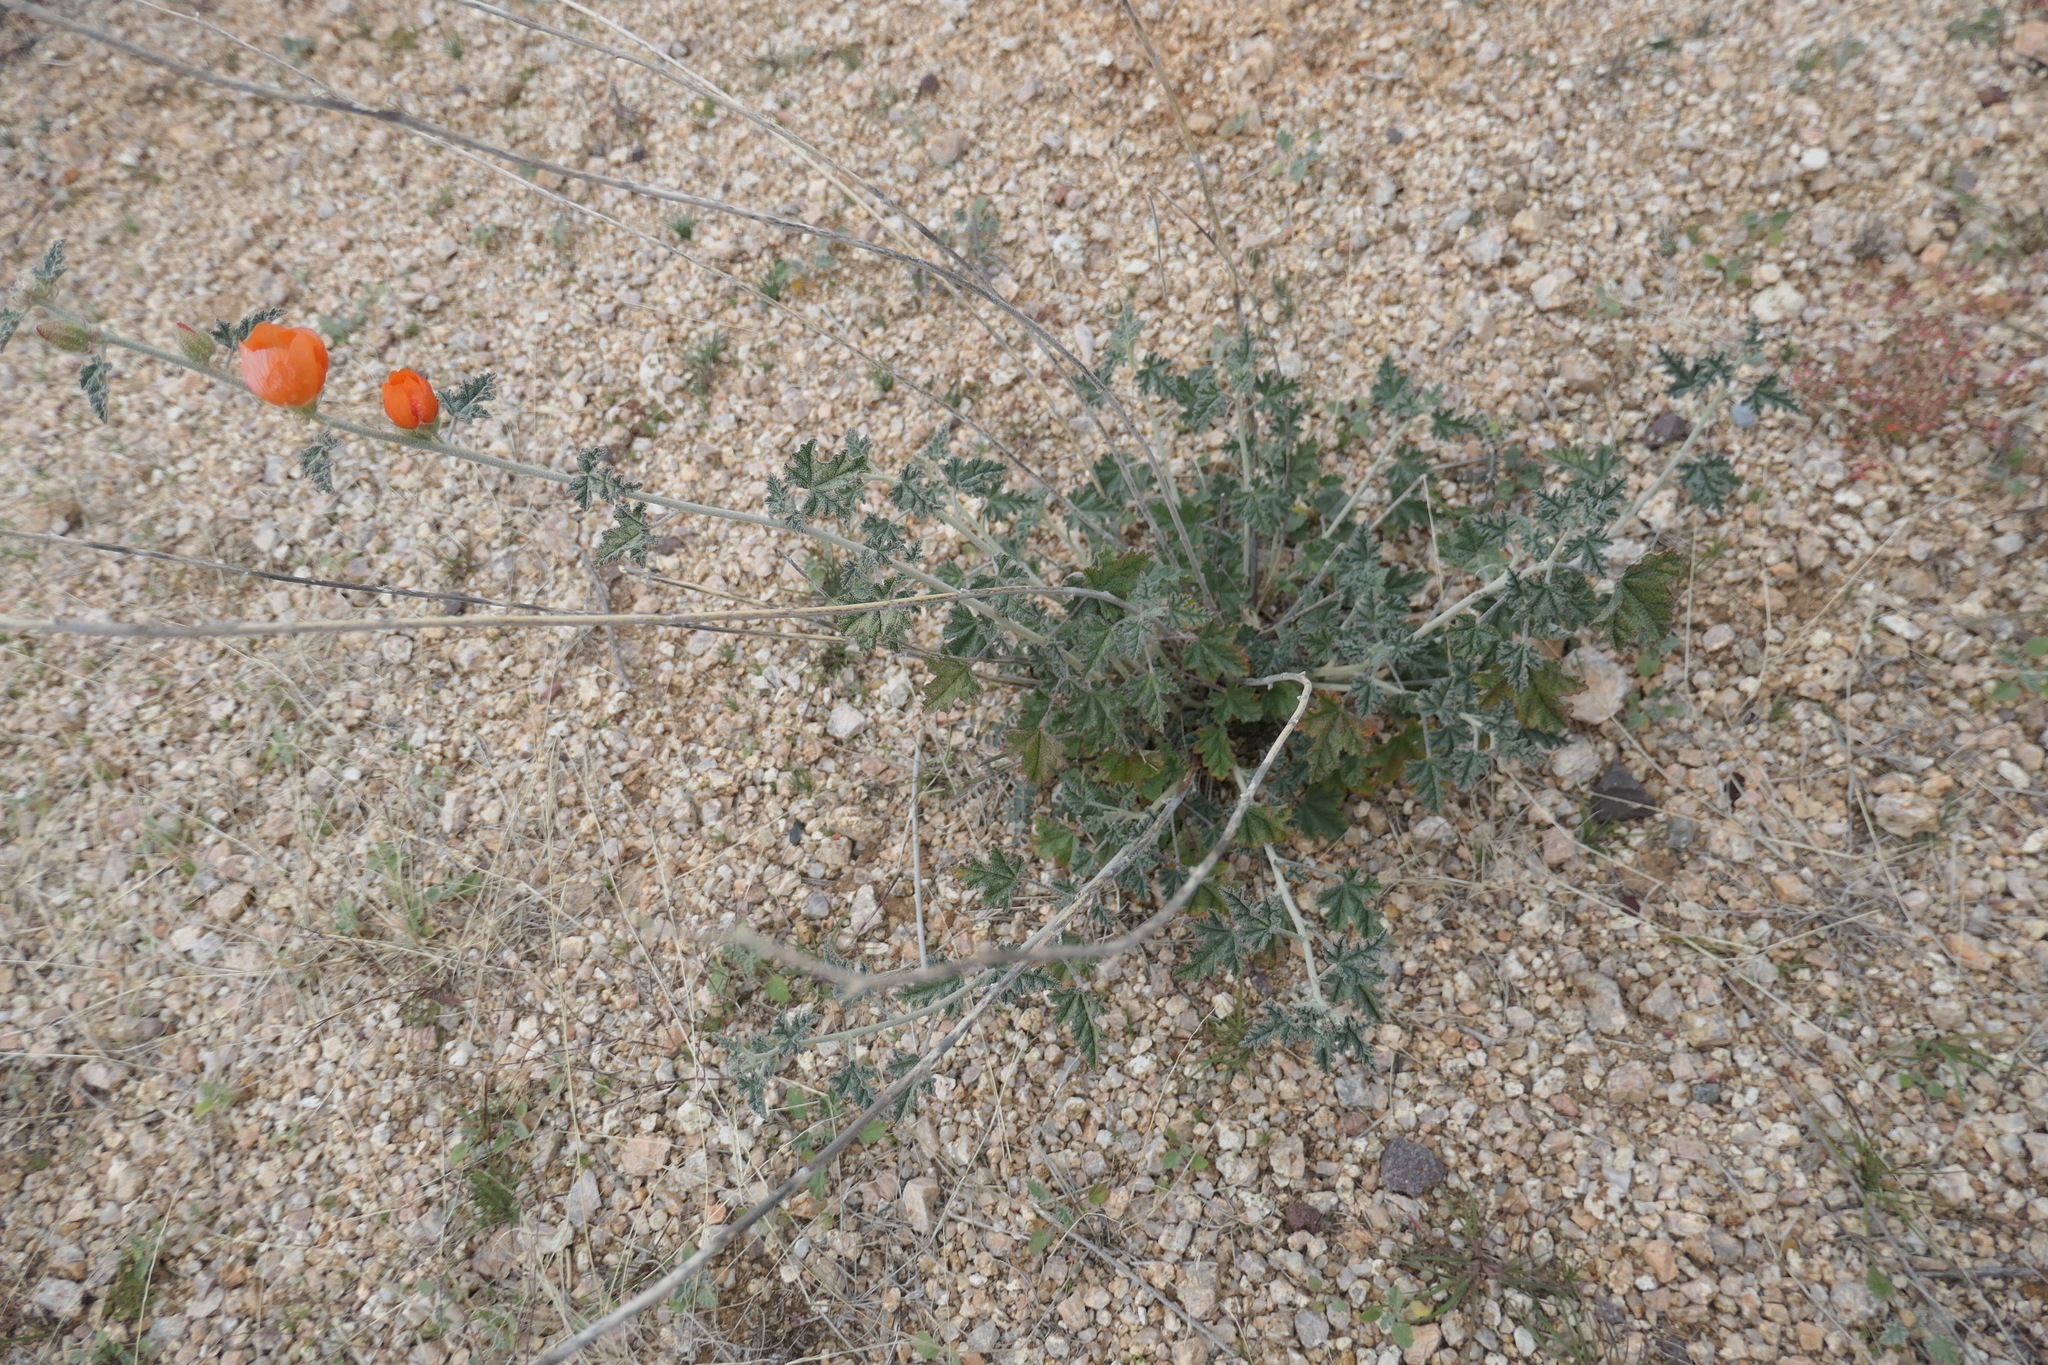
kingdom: Plantae
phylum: Tracheophyta
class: Magnoliopsida
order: Malvales
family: Malvaceae
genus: Sphaeralcea
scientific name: Sphaeralcea ambigua
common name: Apricot globe-mallow
